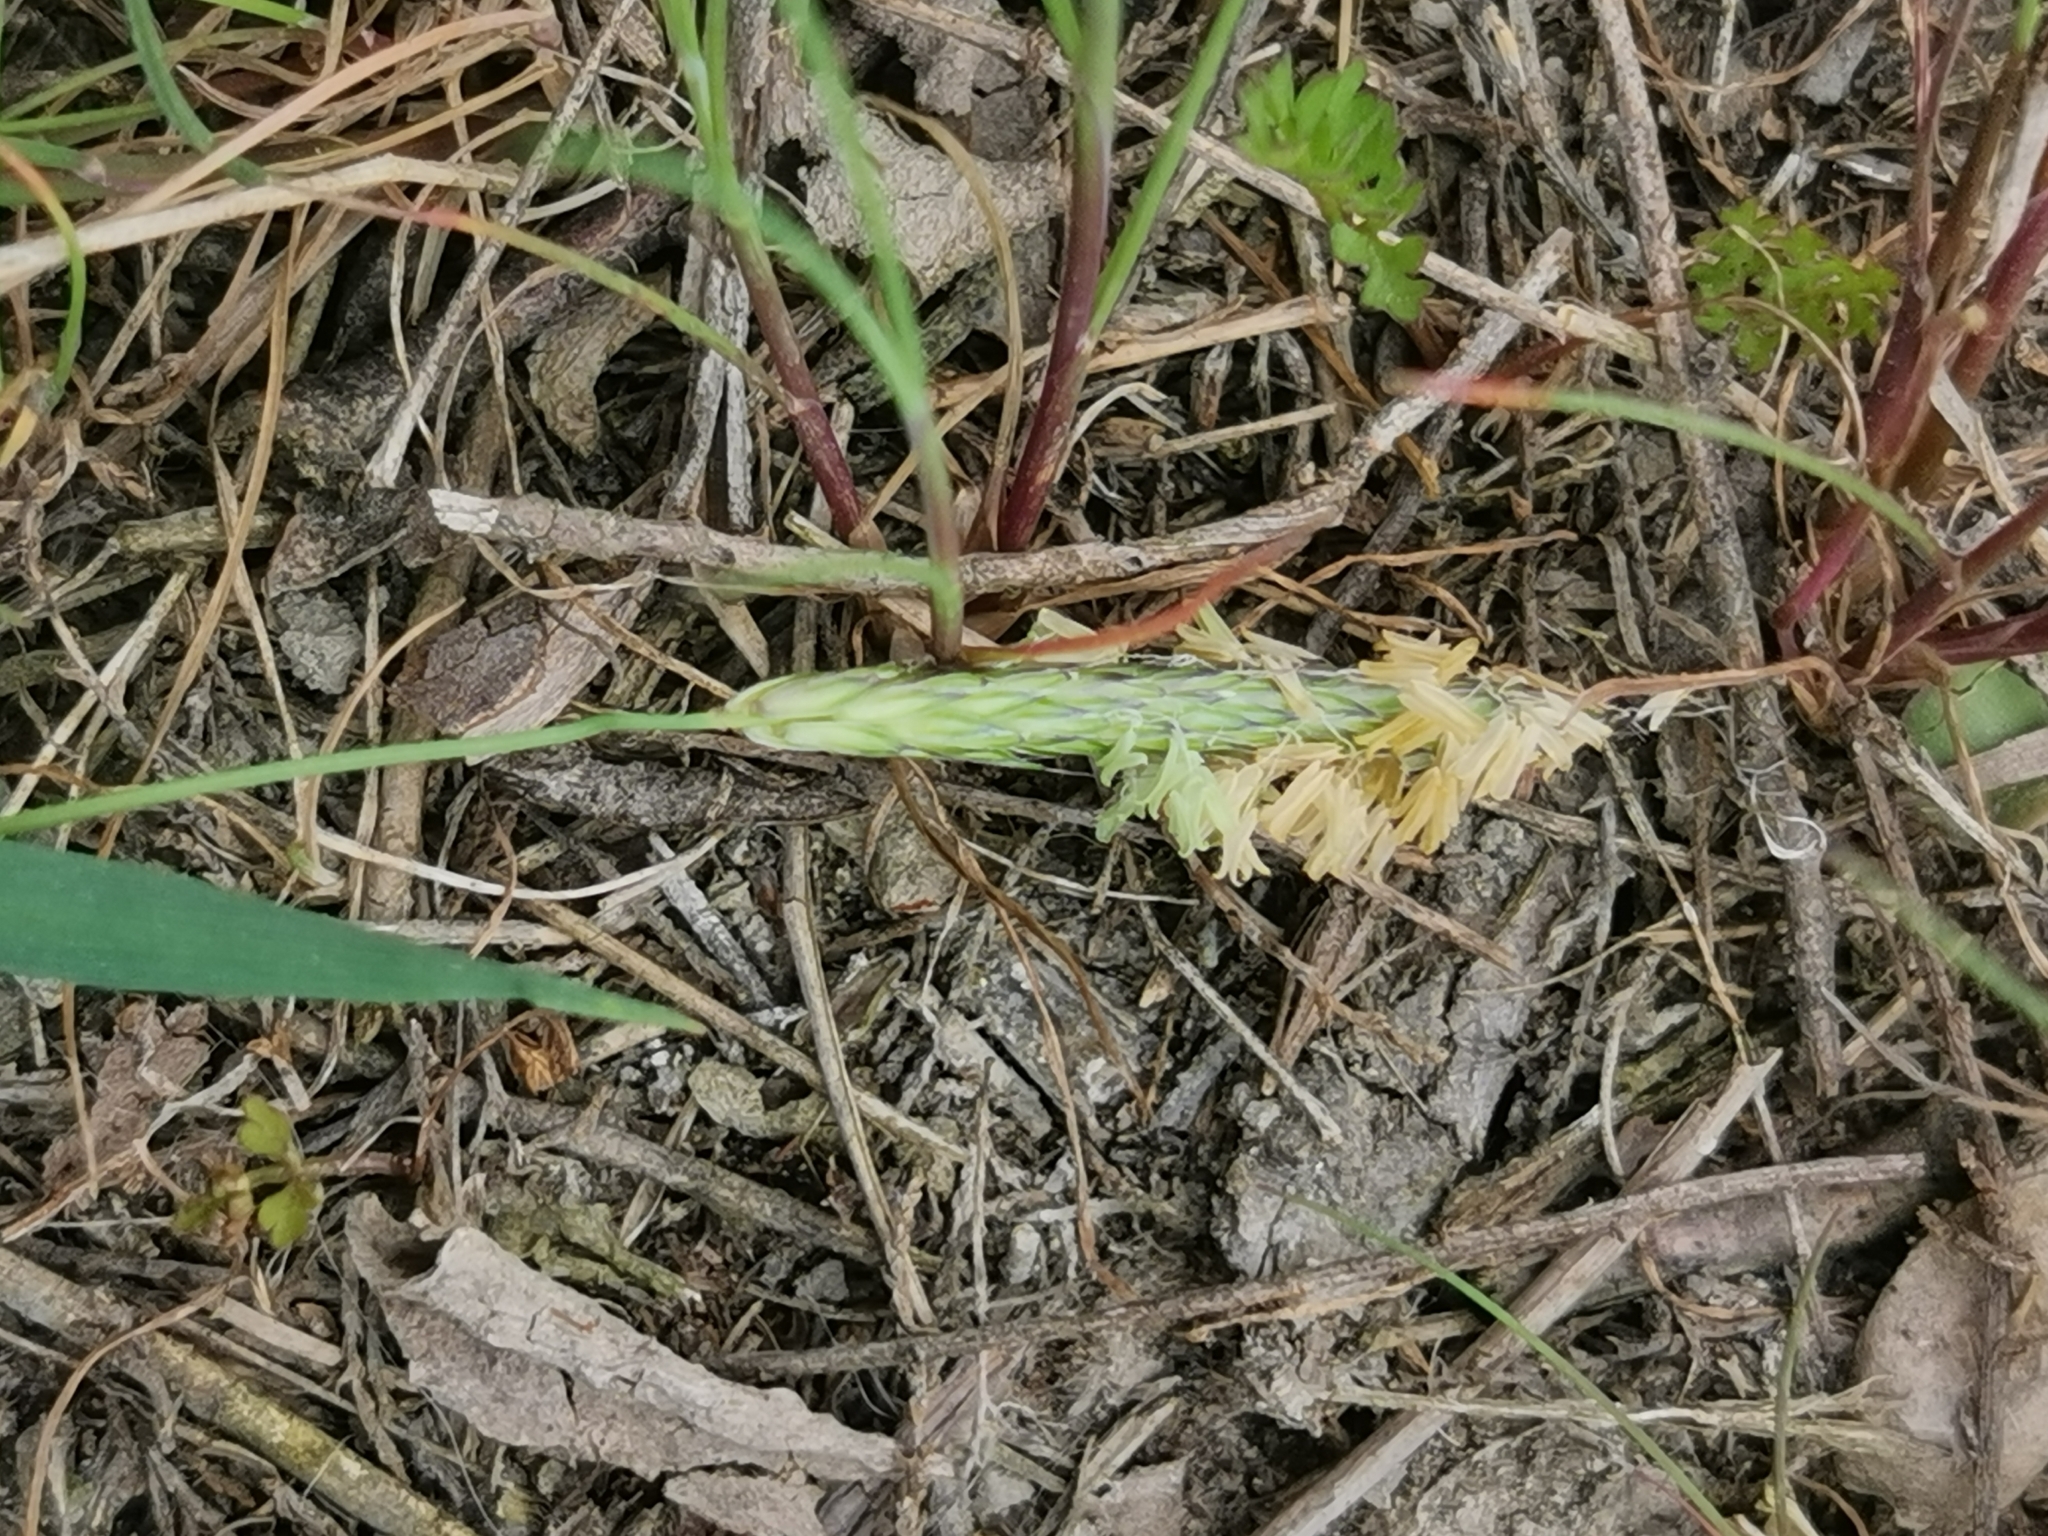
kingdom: Plantae
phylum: Tracheophyta
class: Liliopsida
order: Poales
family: Poaceae
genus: Alopecurus
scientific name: Alopecurus myosuroides
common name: Black-grass
